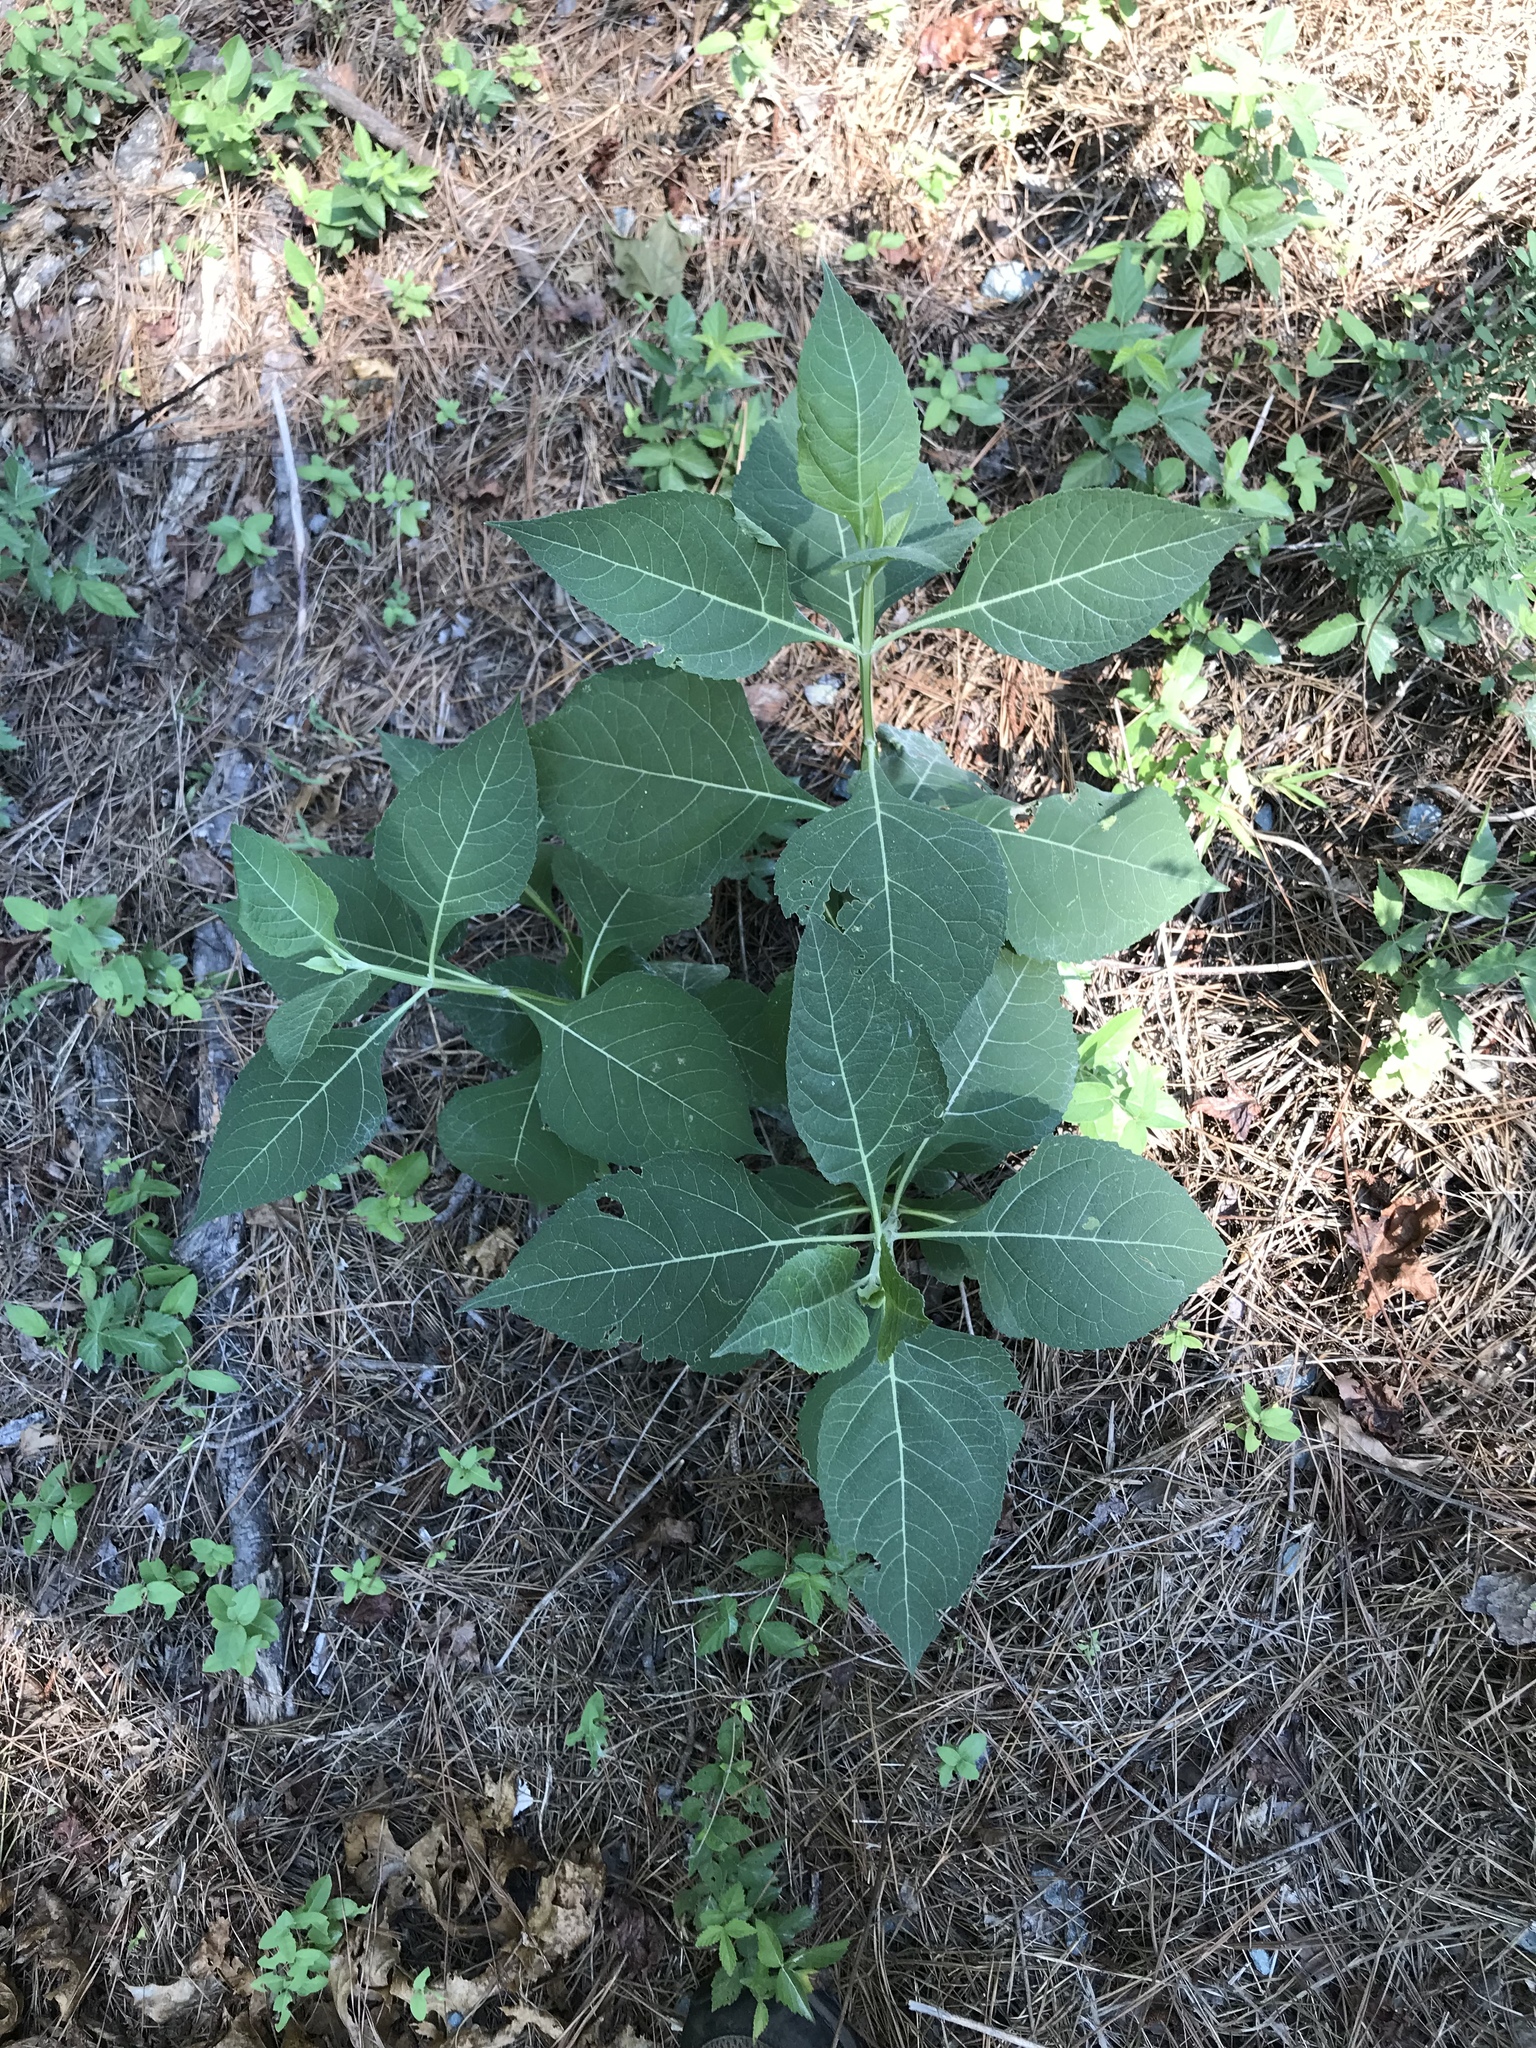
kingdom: Plantae
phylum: Tracheophyta
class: Magnoliopsida
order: Asterales
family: Asteraceae
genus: Verbesina
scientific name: Verbesina occidentalis
